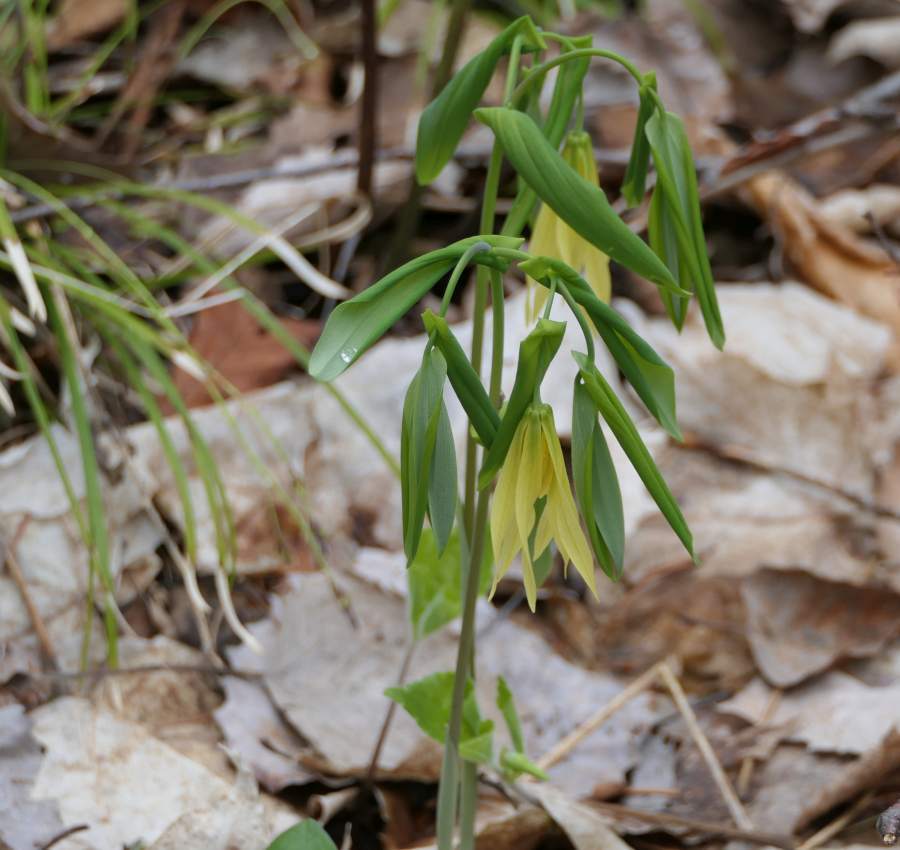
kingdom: Plantae
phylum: Tracheophyta
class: Liliopsida
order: Liliales
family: Colchicaceae
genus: Uvularia
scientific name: Uvularia grandiflora
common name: Bellwort
